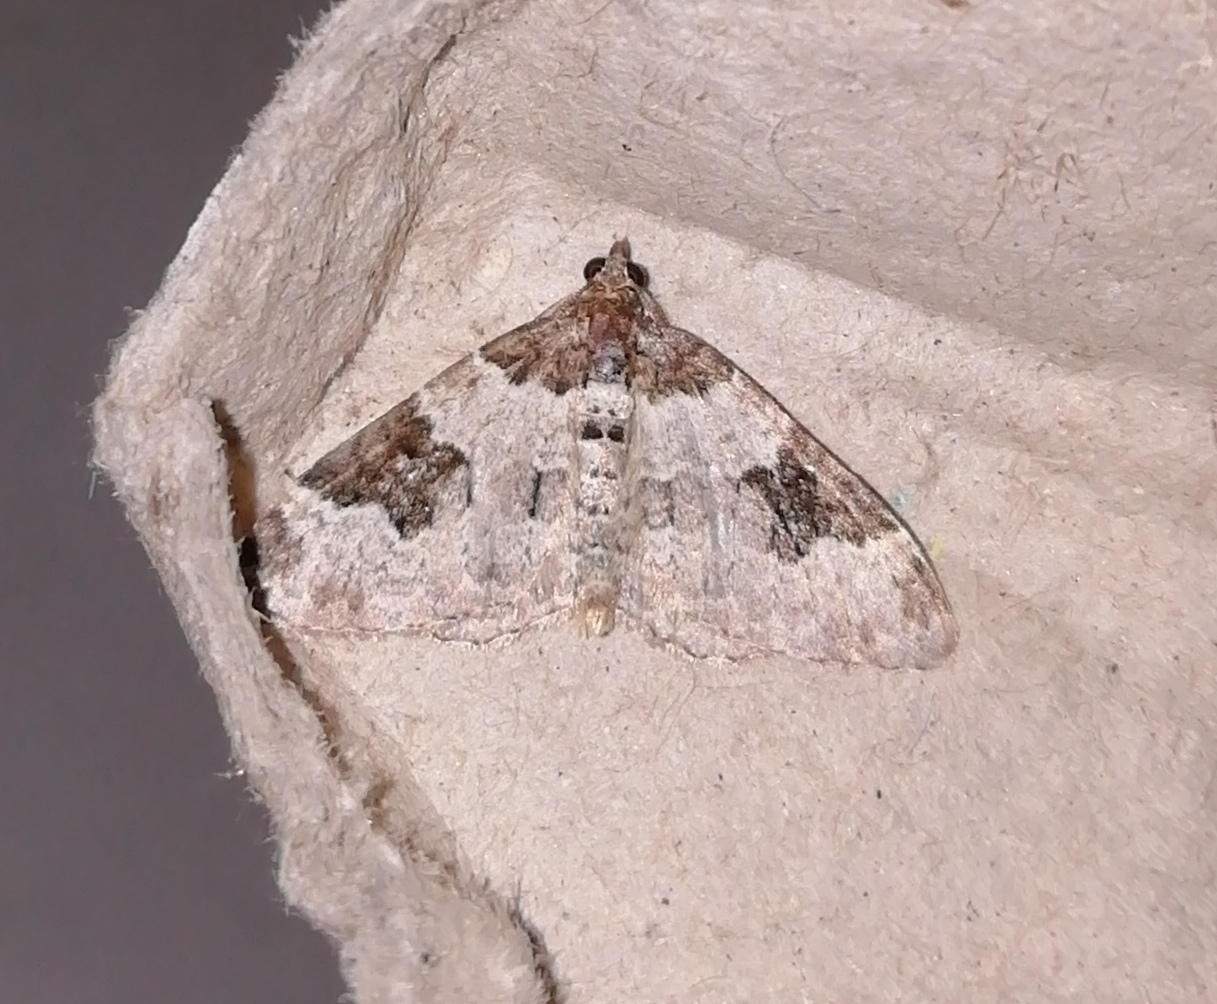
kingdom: Animalia
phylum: Arthropoda
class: Insecta
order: Lepidoptera
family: Geometridae
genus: Xanthorhoe
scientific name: Xanthorhoe fluctuata
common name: Garden carpet
